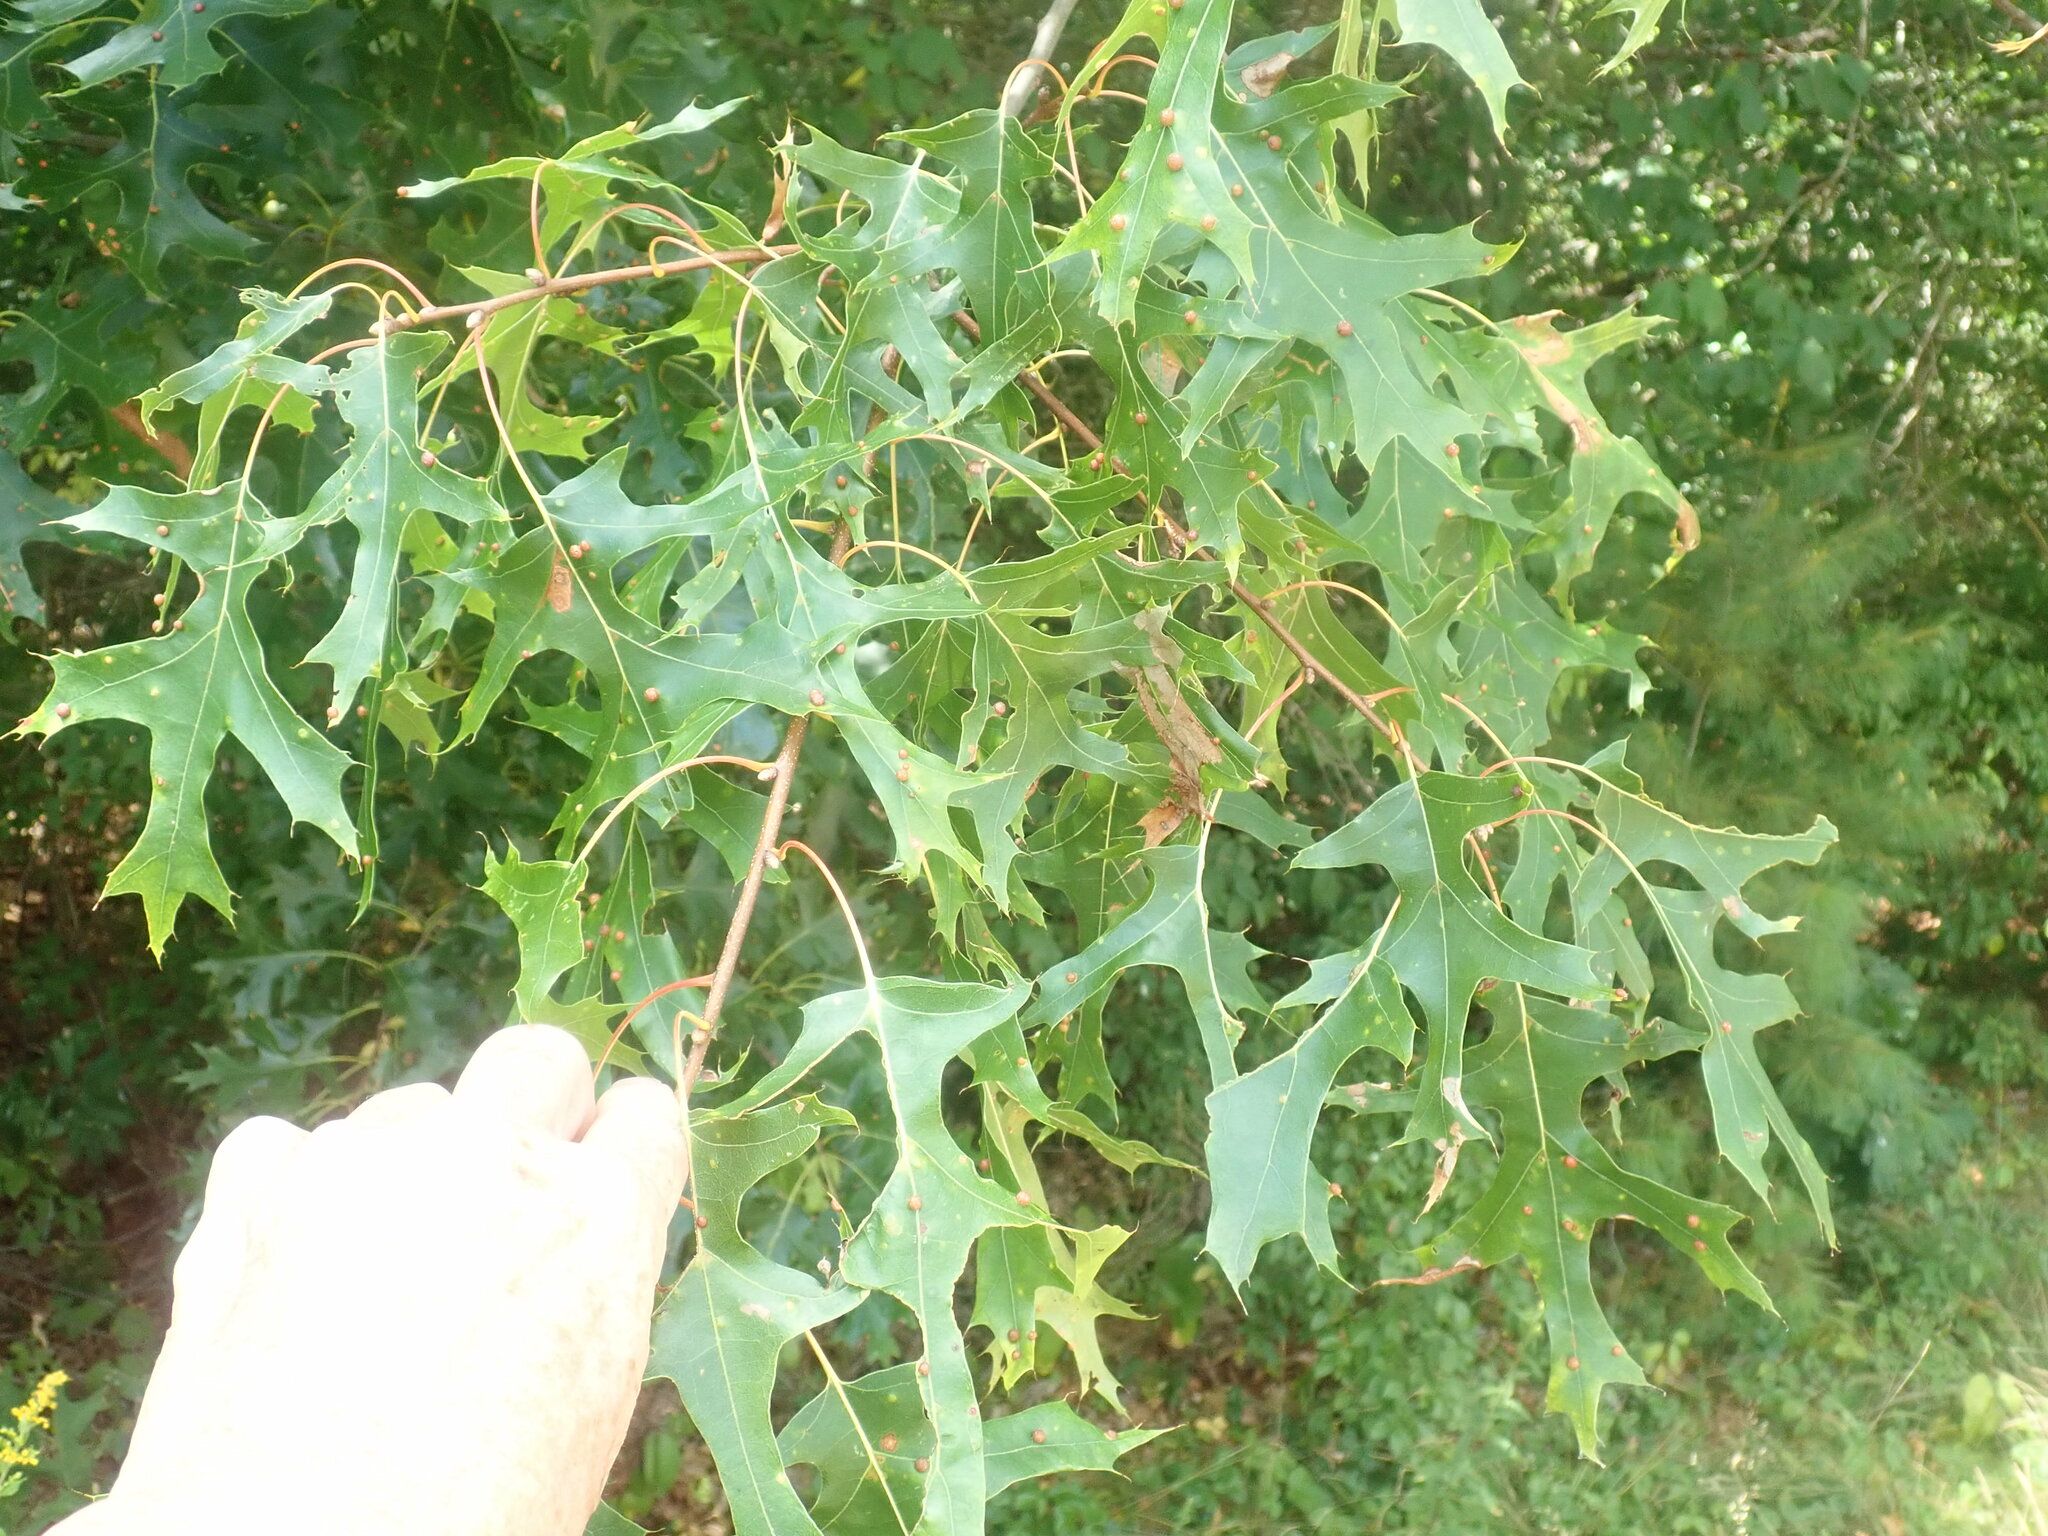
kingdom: Plantae
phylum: Tracheophyta
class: Magnoliopsida
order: Fagales
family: Fagaceae
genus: Quercus
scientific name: Quercus coccinea
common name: Scarlet oak
